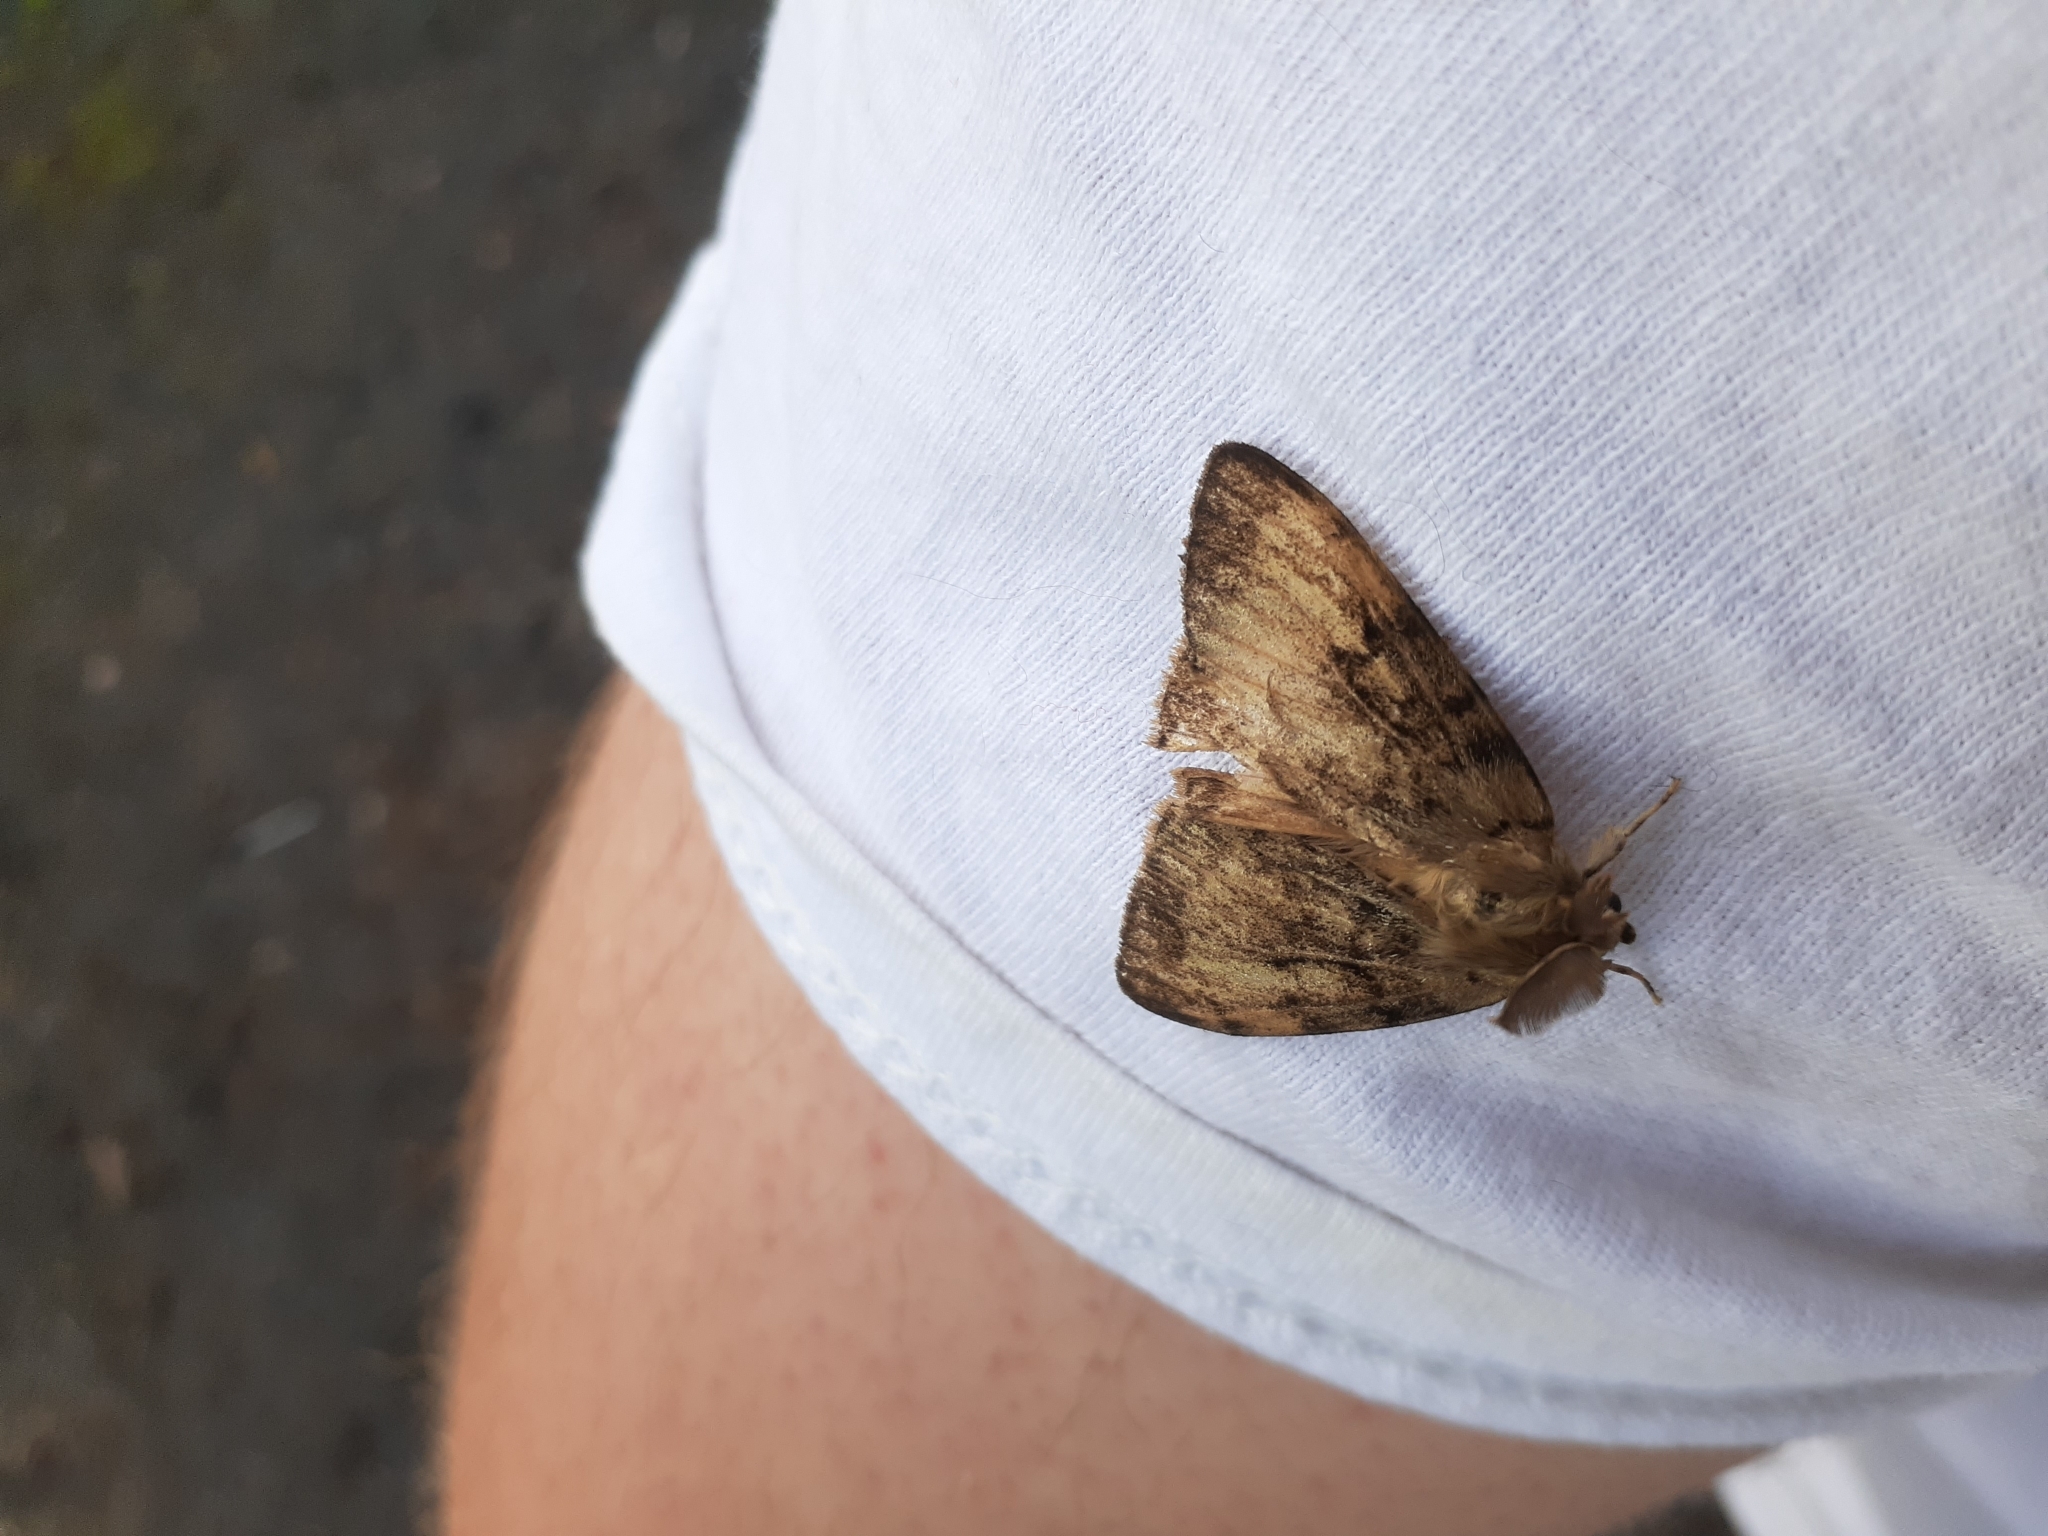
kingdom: Animalia
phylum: Arthropoda
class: Insecta
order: Lepidoptera
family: Erebidae
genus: Lymantria
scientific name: Lymantria dispar
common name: Gypsy moth
